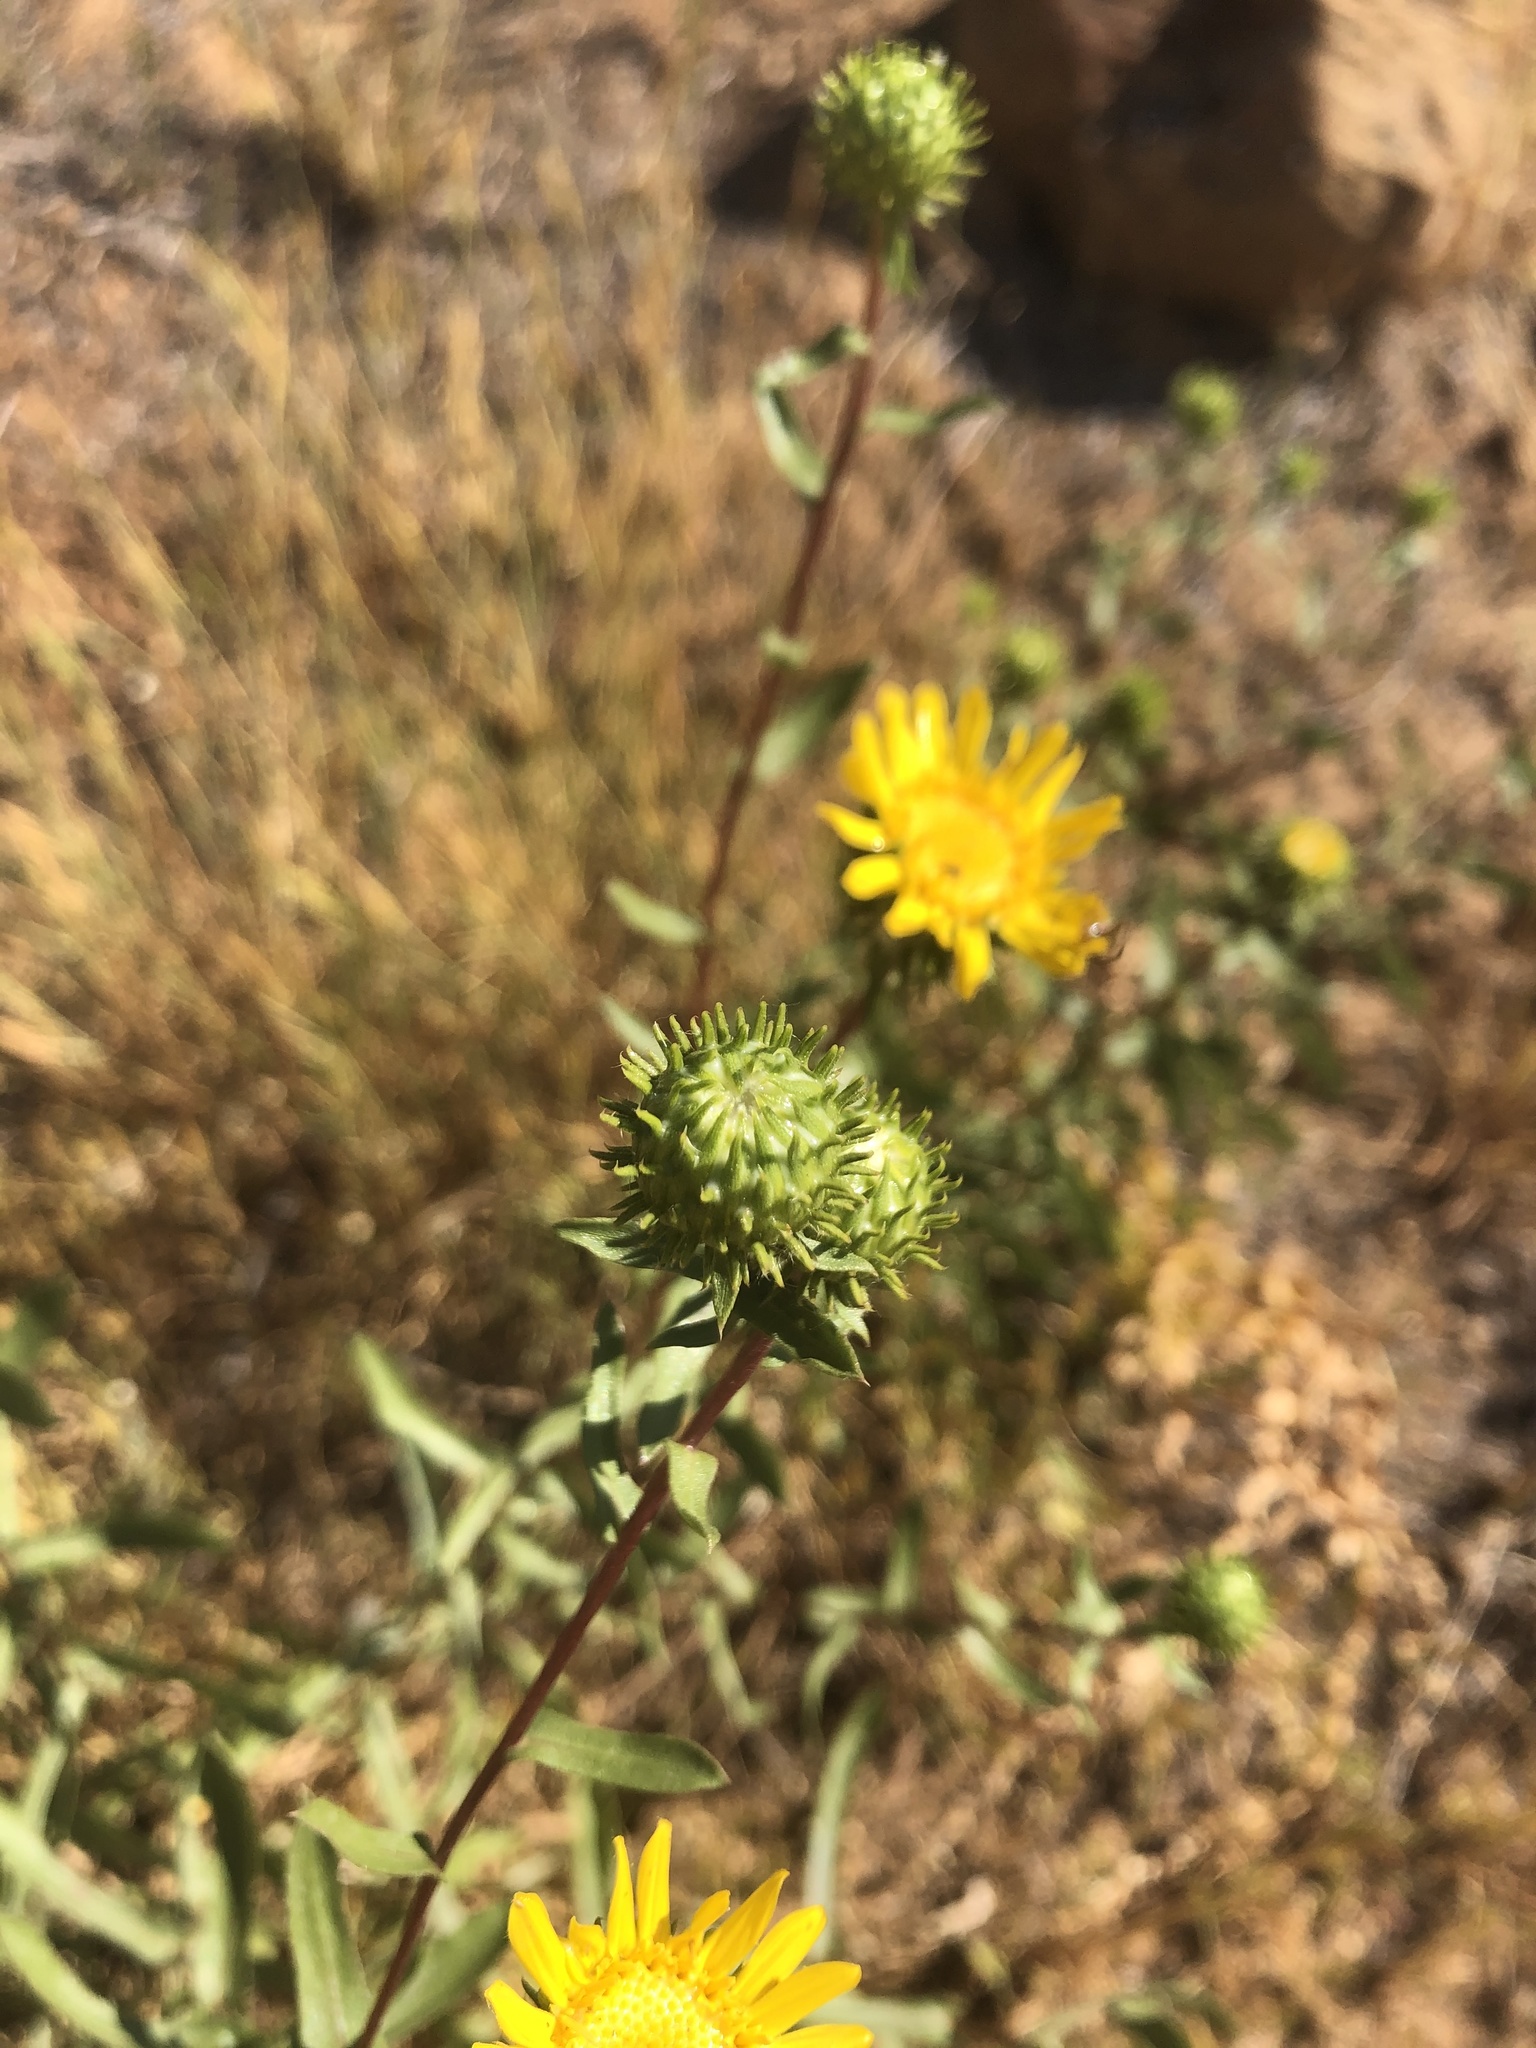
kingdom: Plantae
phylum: Tracheophyta
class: Magnoliopsida
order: Asterales
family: Asteraceae
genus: Grindelia
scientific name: Grindelia hirsutula
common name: Hairy gumweed
